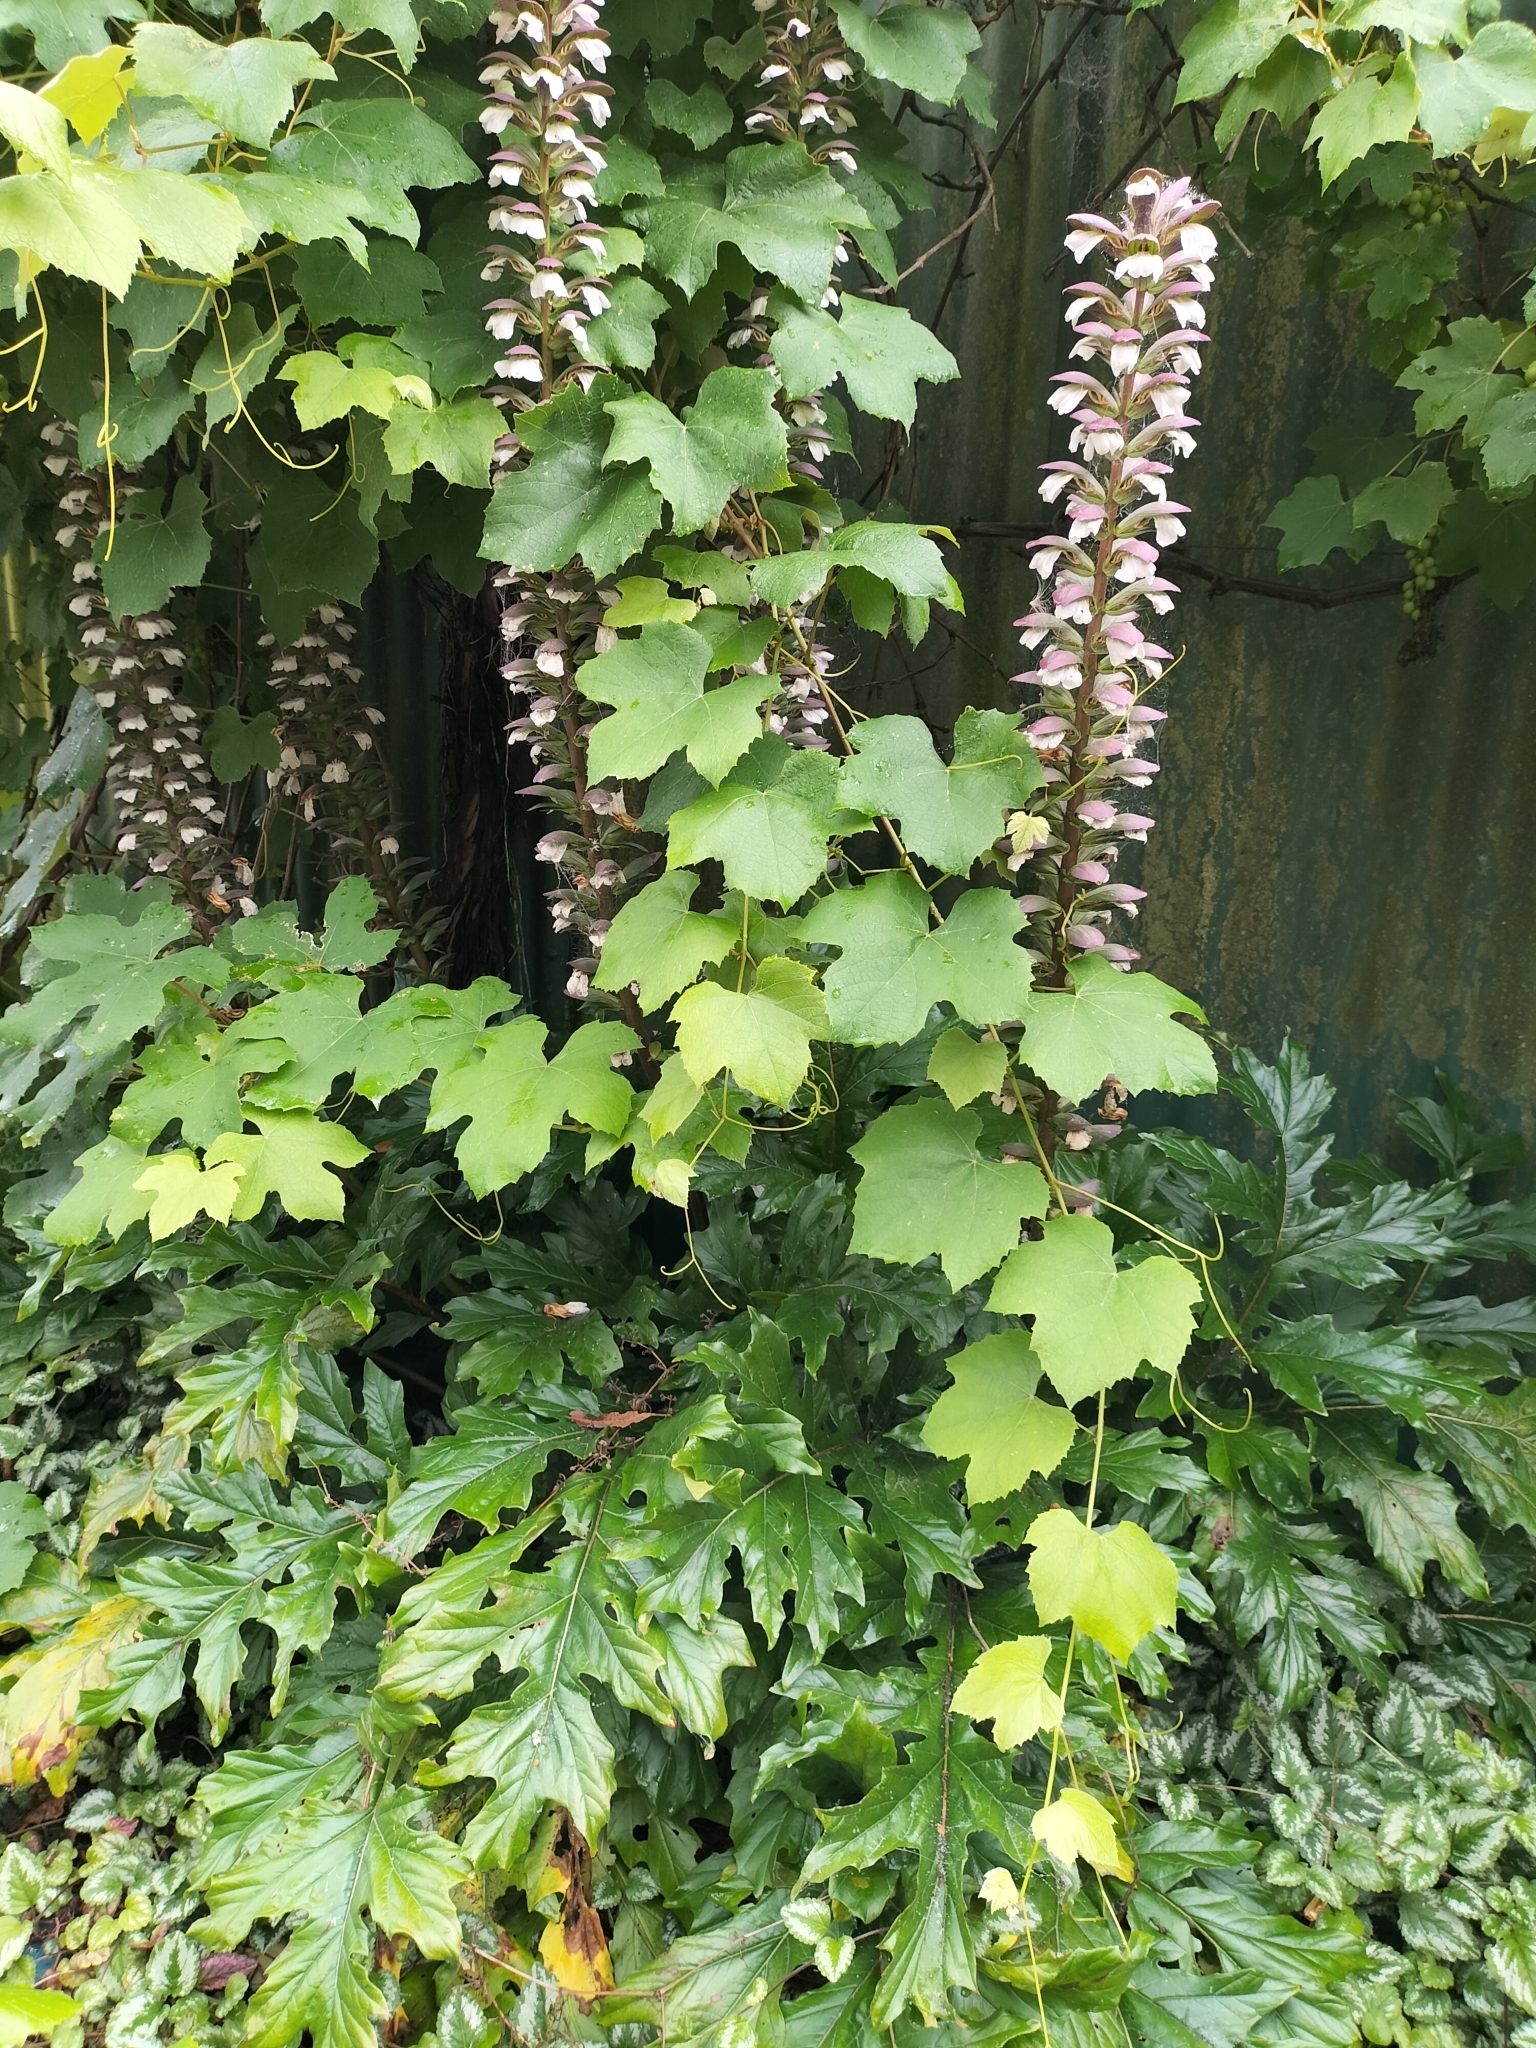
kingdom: Plantae
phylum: Tracheophyta
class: Magnoliopsida
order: Lamiales
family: Acanthaceae
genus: Acanthus
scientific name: Acanthus mollis
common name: Bear's-breech
